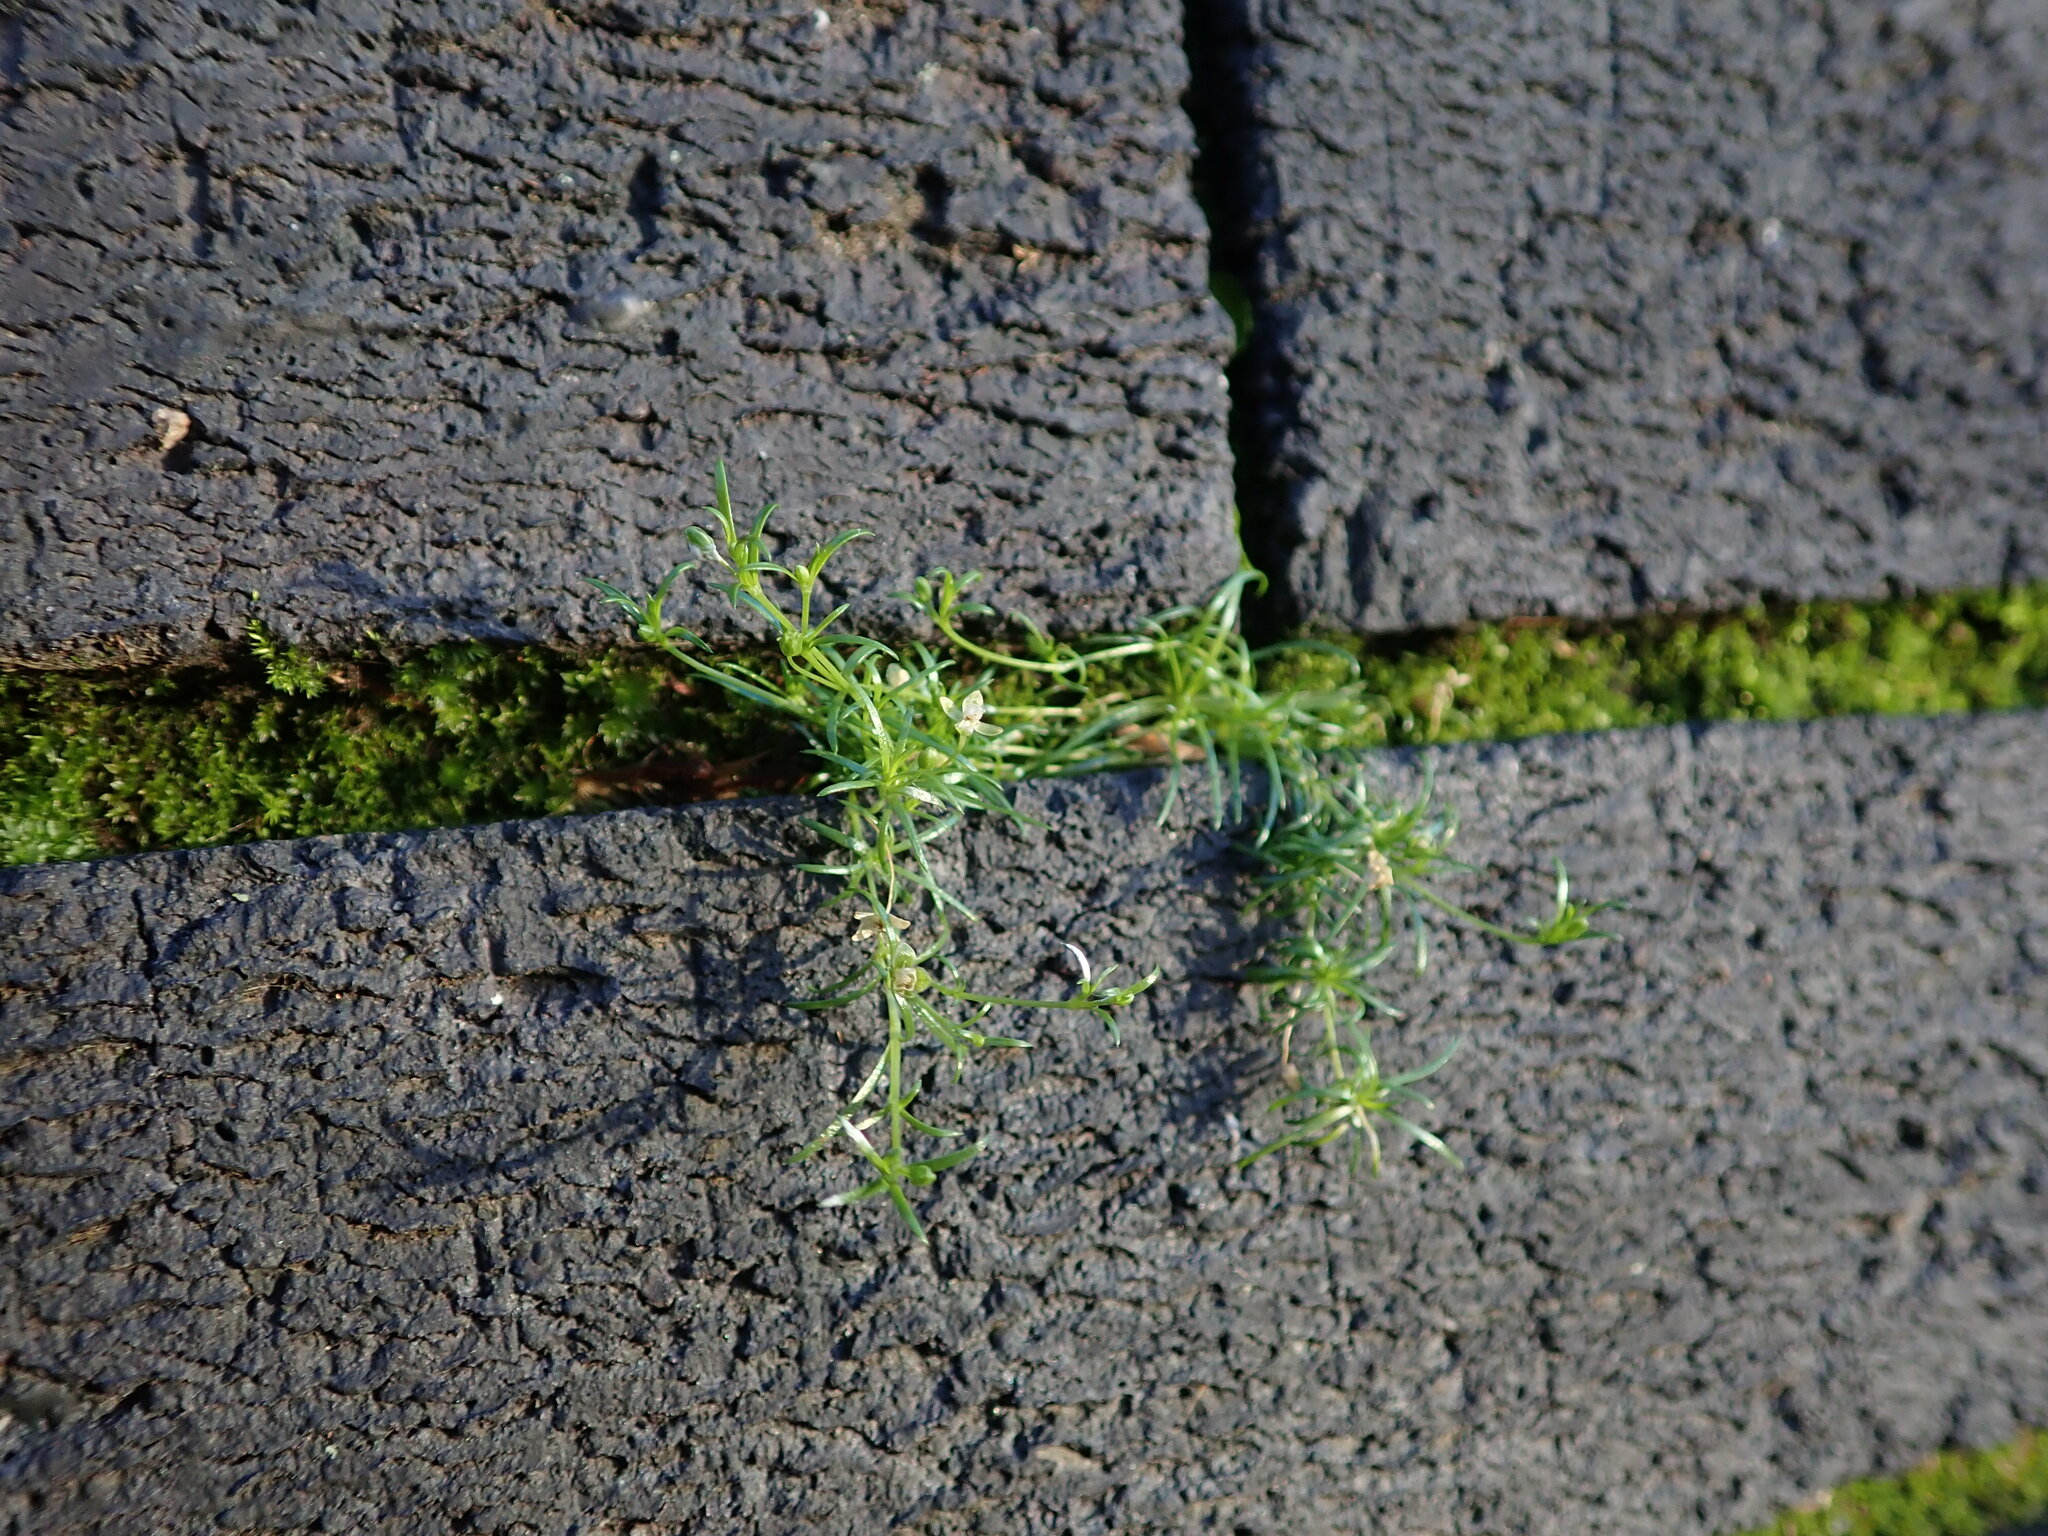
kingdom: Plantae
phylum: Tracheophyta
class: Magnoliopsida
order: Caryophyllales
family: Caryophyllaceae
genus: Sagina
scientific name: Sagina procumbens
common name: Procumbent pearlwort
